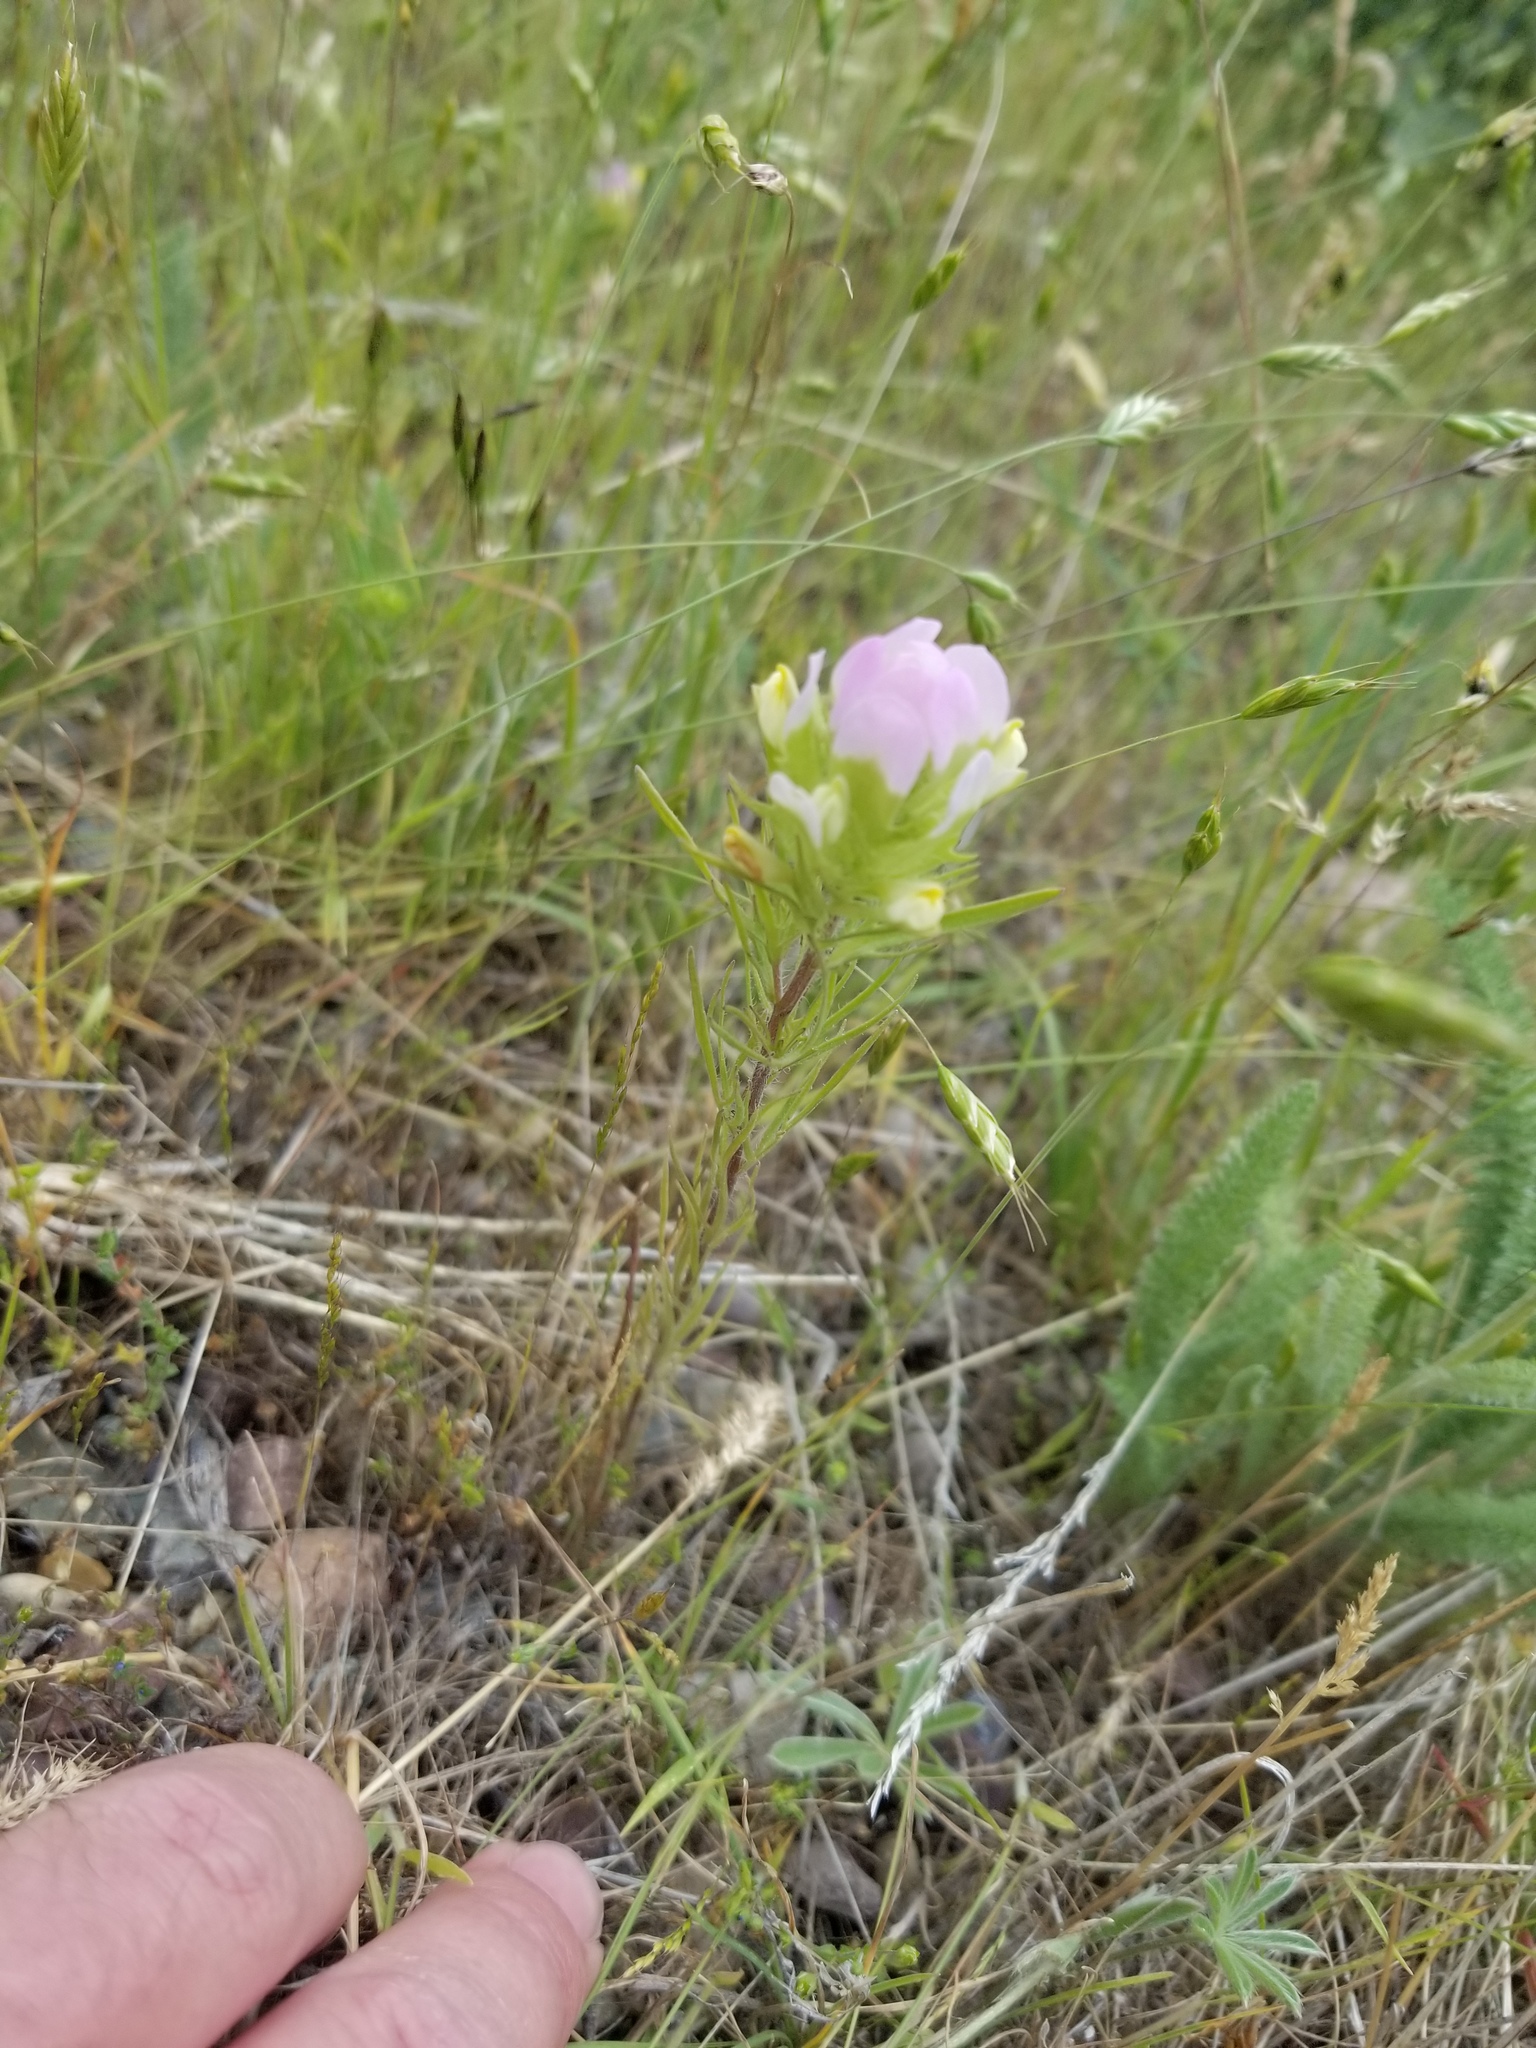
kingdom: Plantae
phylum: Tracheophyta
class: Magnoliopsida
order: Lamiales
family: Orobanchaceae
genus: Orthocarpus
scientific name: Orthocarpus tenuifolius
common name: Thin-leaved owl's-clover
